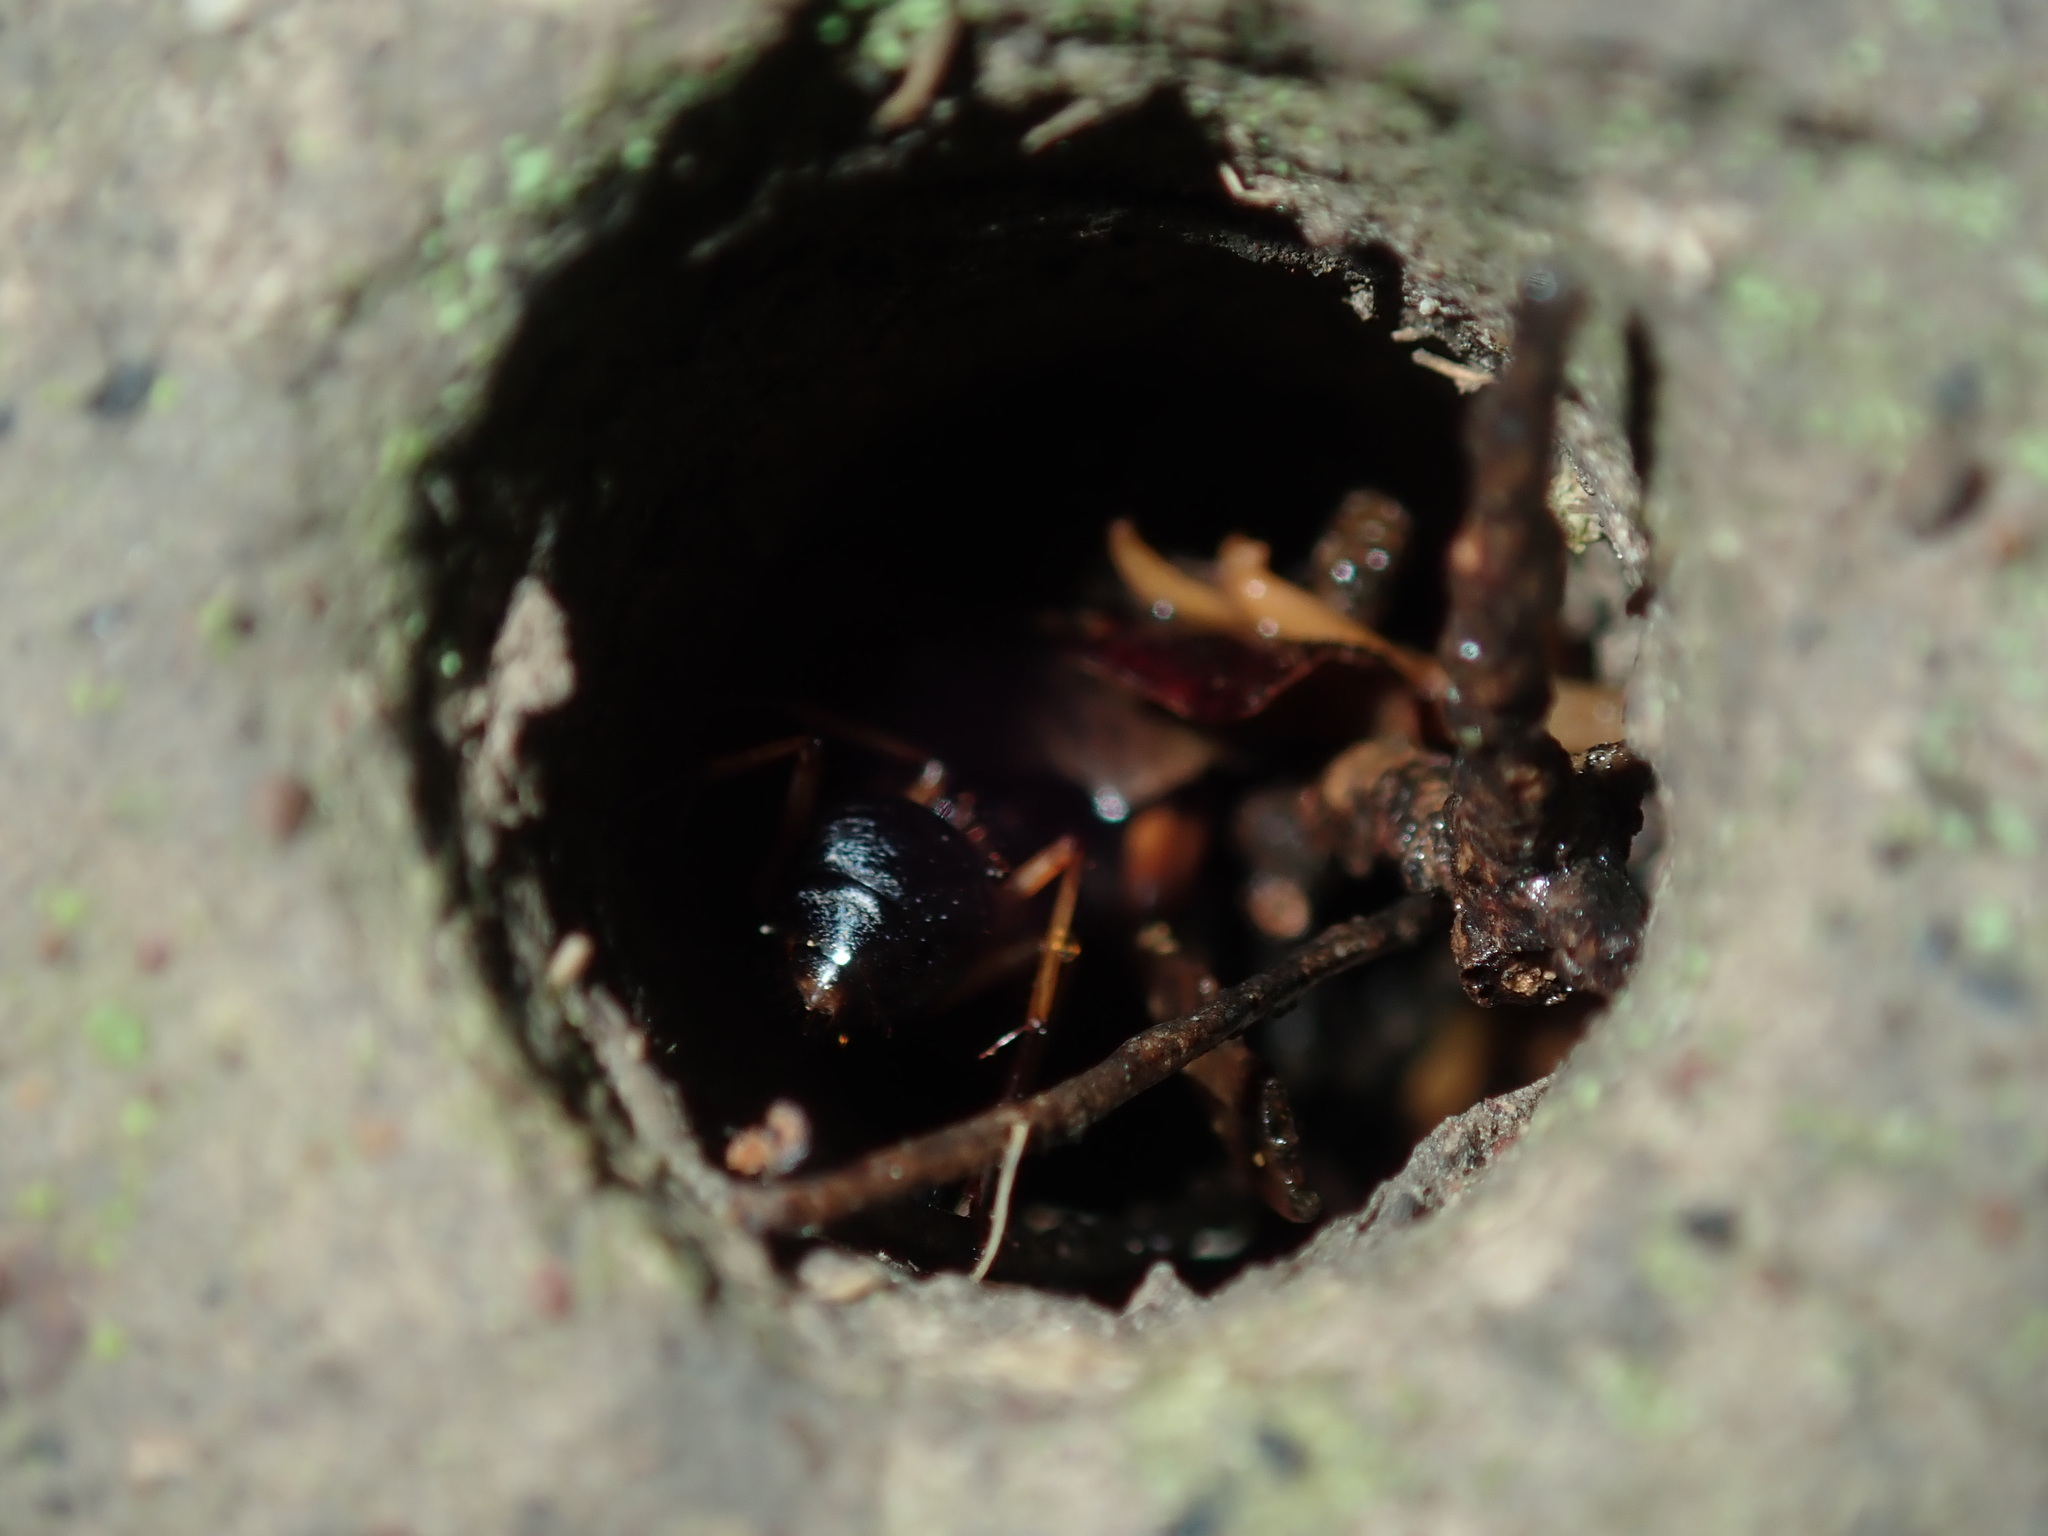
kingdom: Animalia
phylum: Arthropoda
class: Insecta
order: Hymenoptera
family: Formicidae
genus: Camponotus
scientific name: Camponotus consobrinus
